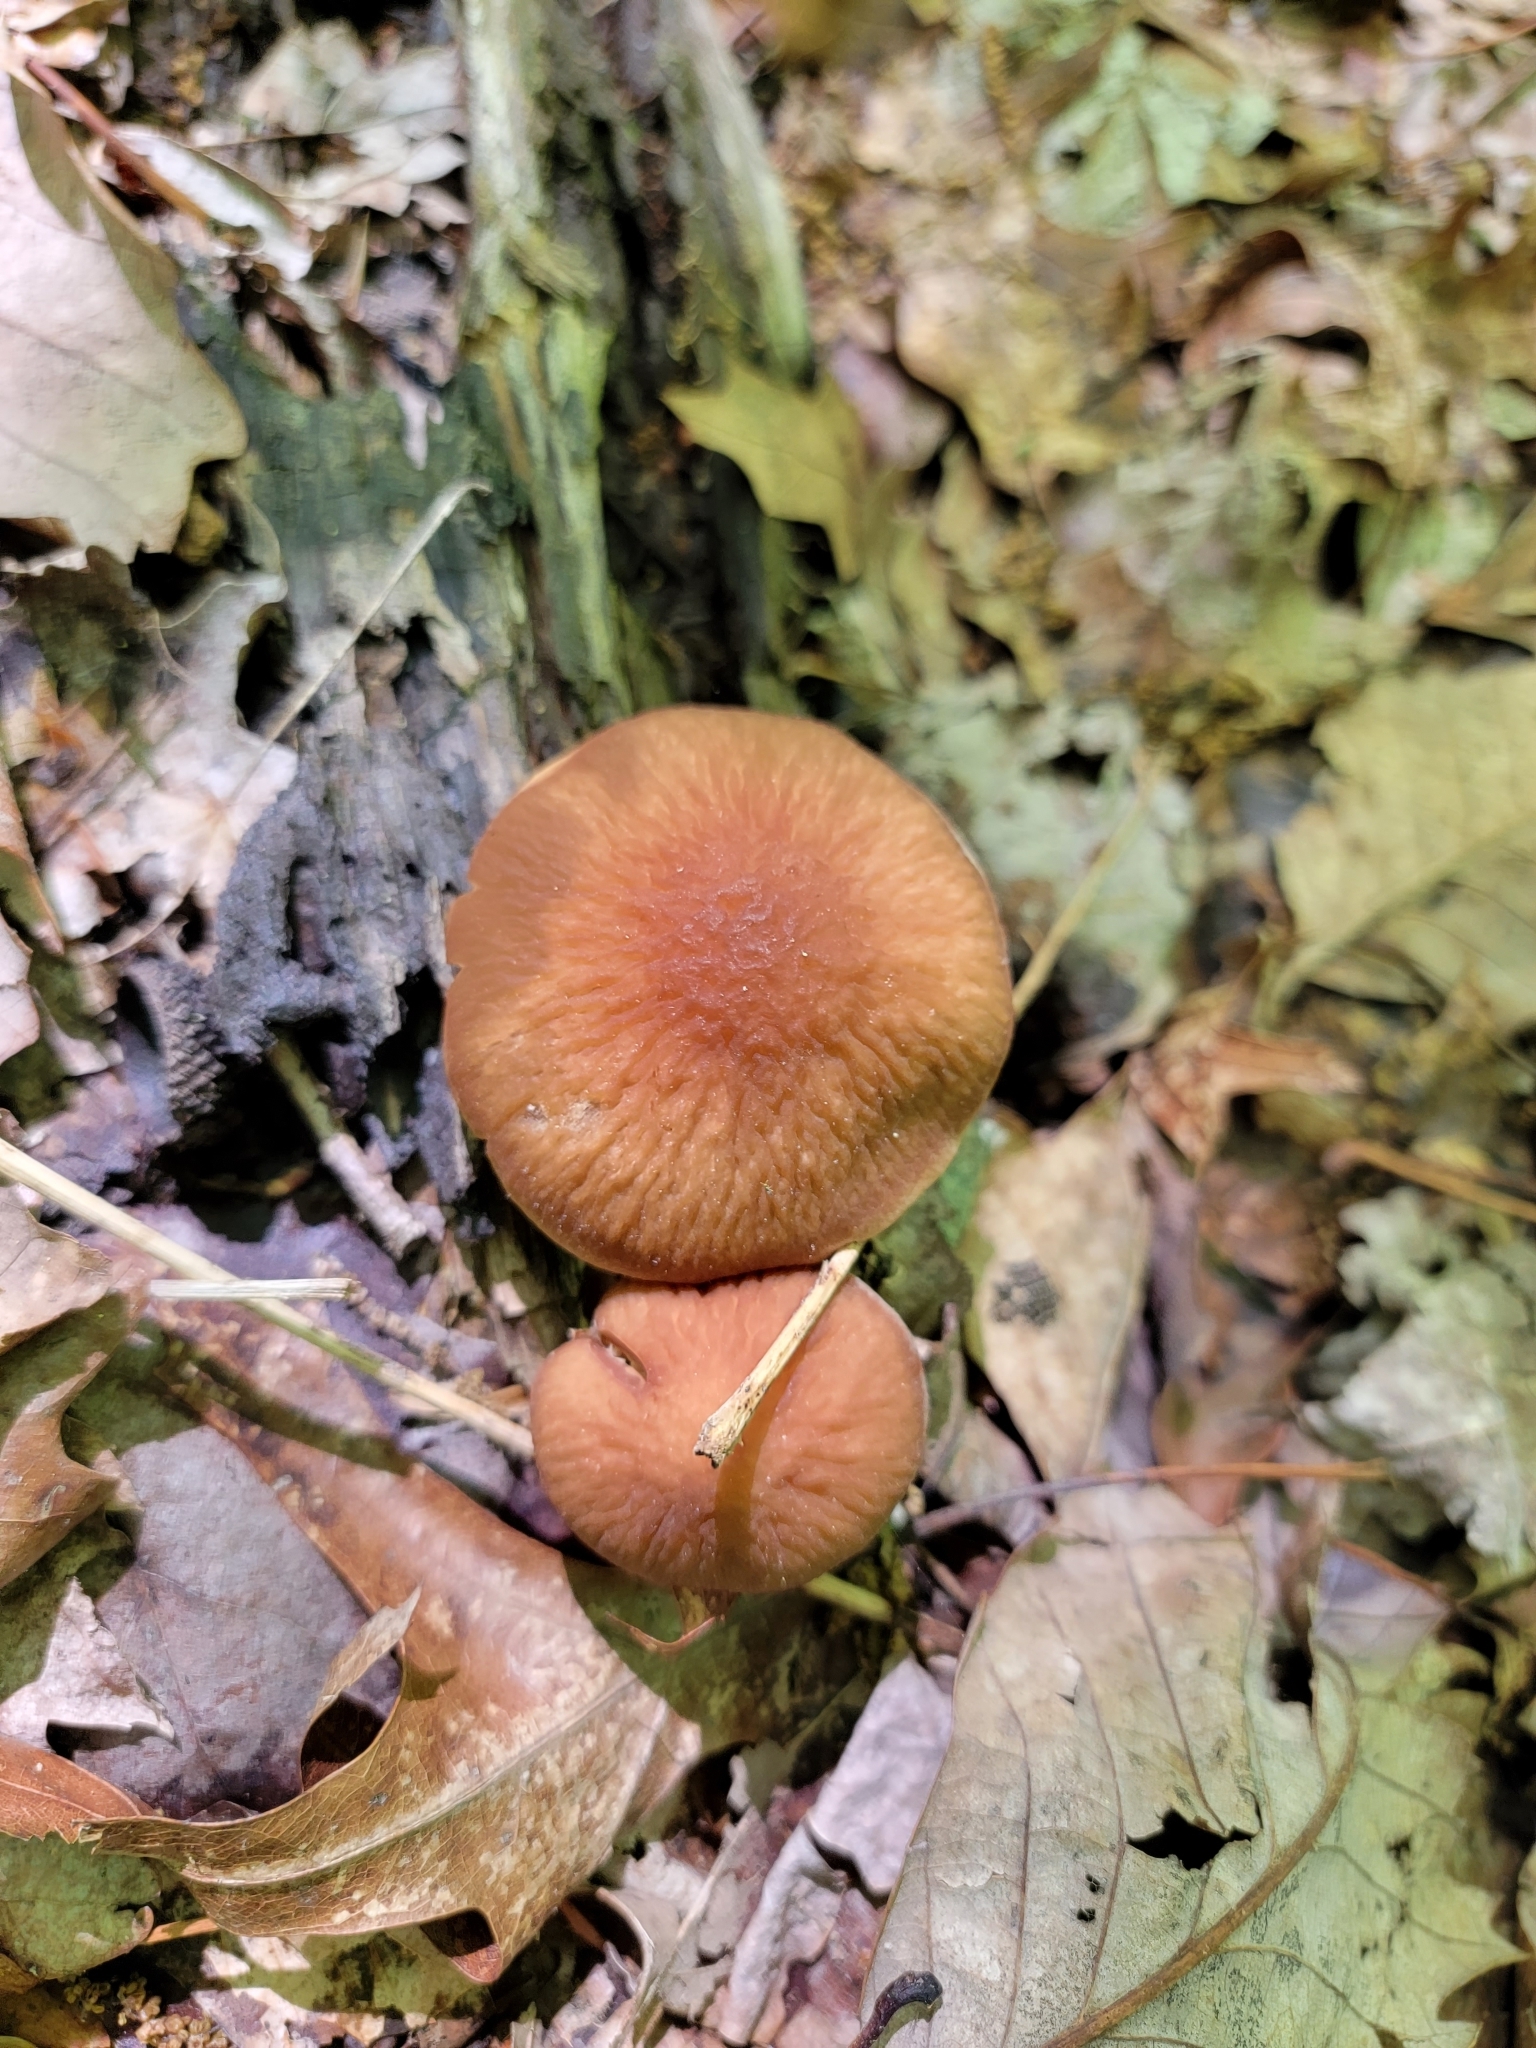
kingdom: Fungi
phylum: Basidiomycota
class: Agaricomycetes
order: Agaricales
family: Psathyrellaceae
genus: Typhrasa
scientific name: Typhrasa gossypina
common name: Wrinkled psathyrella
